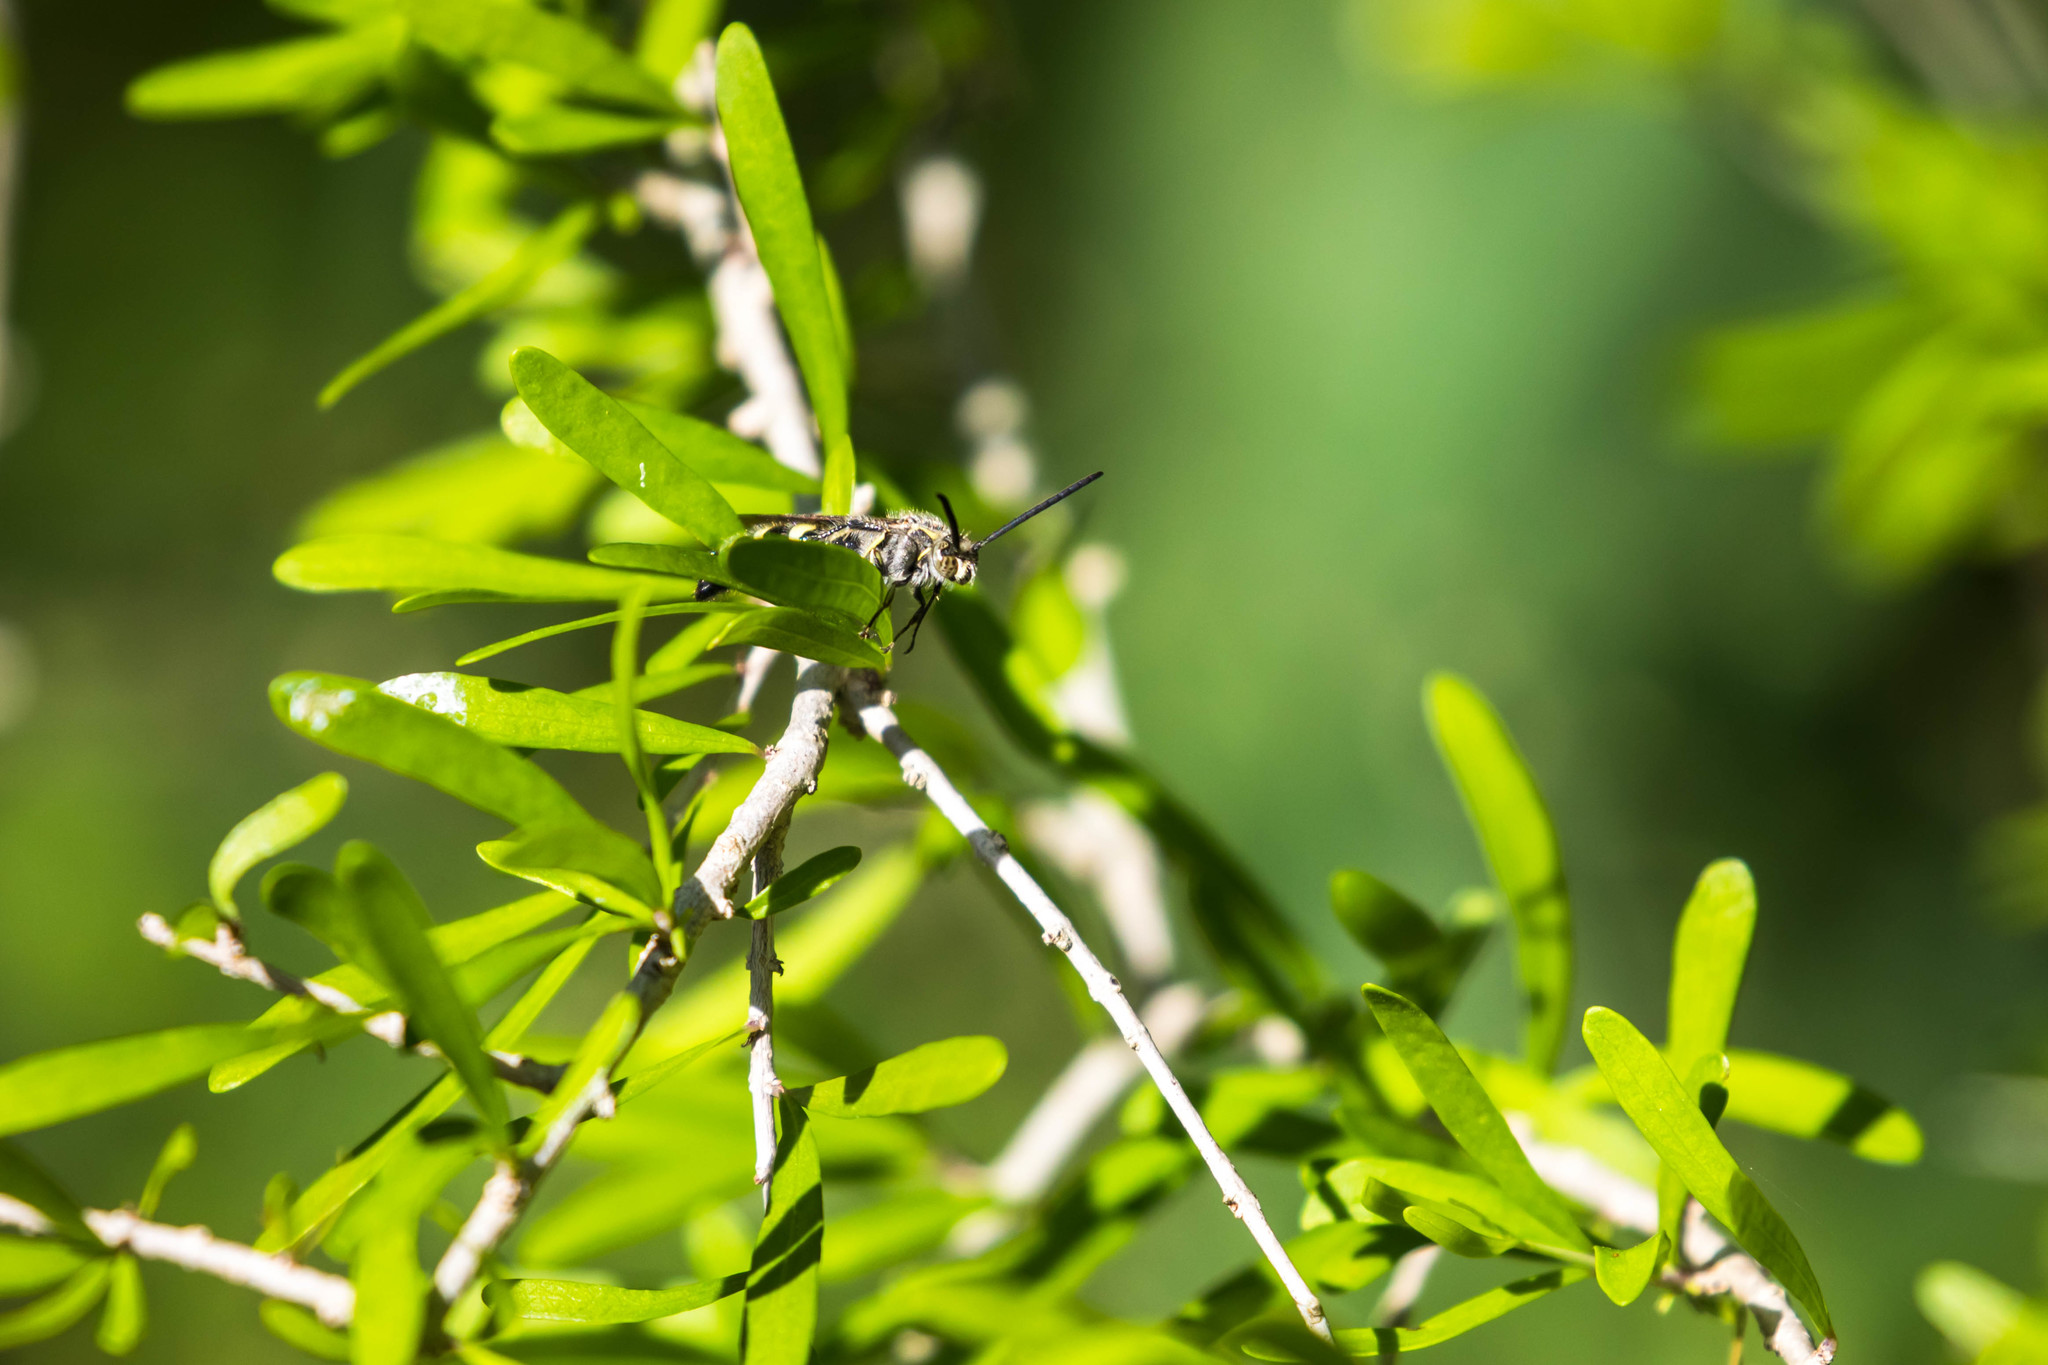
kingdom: Animalia
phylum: Arthropoda
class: Insecta
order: Hymenoptera
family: Scoliidae
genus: Dielis
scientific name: Dielis tolteca
